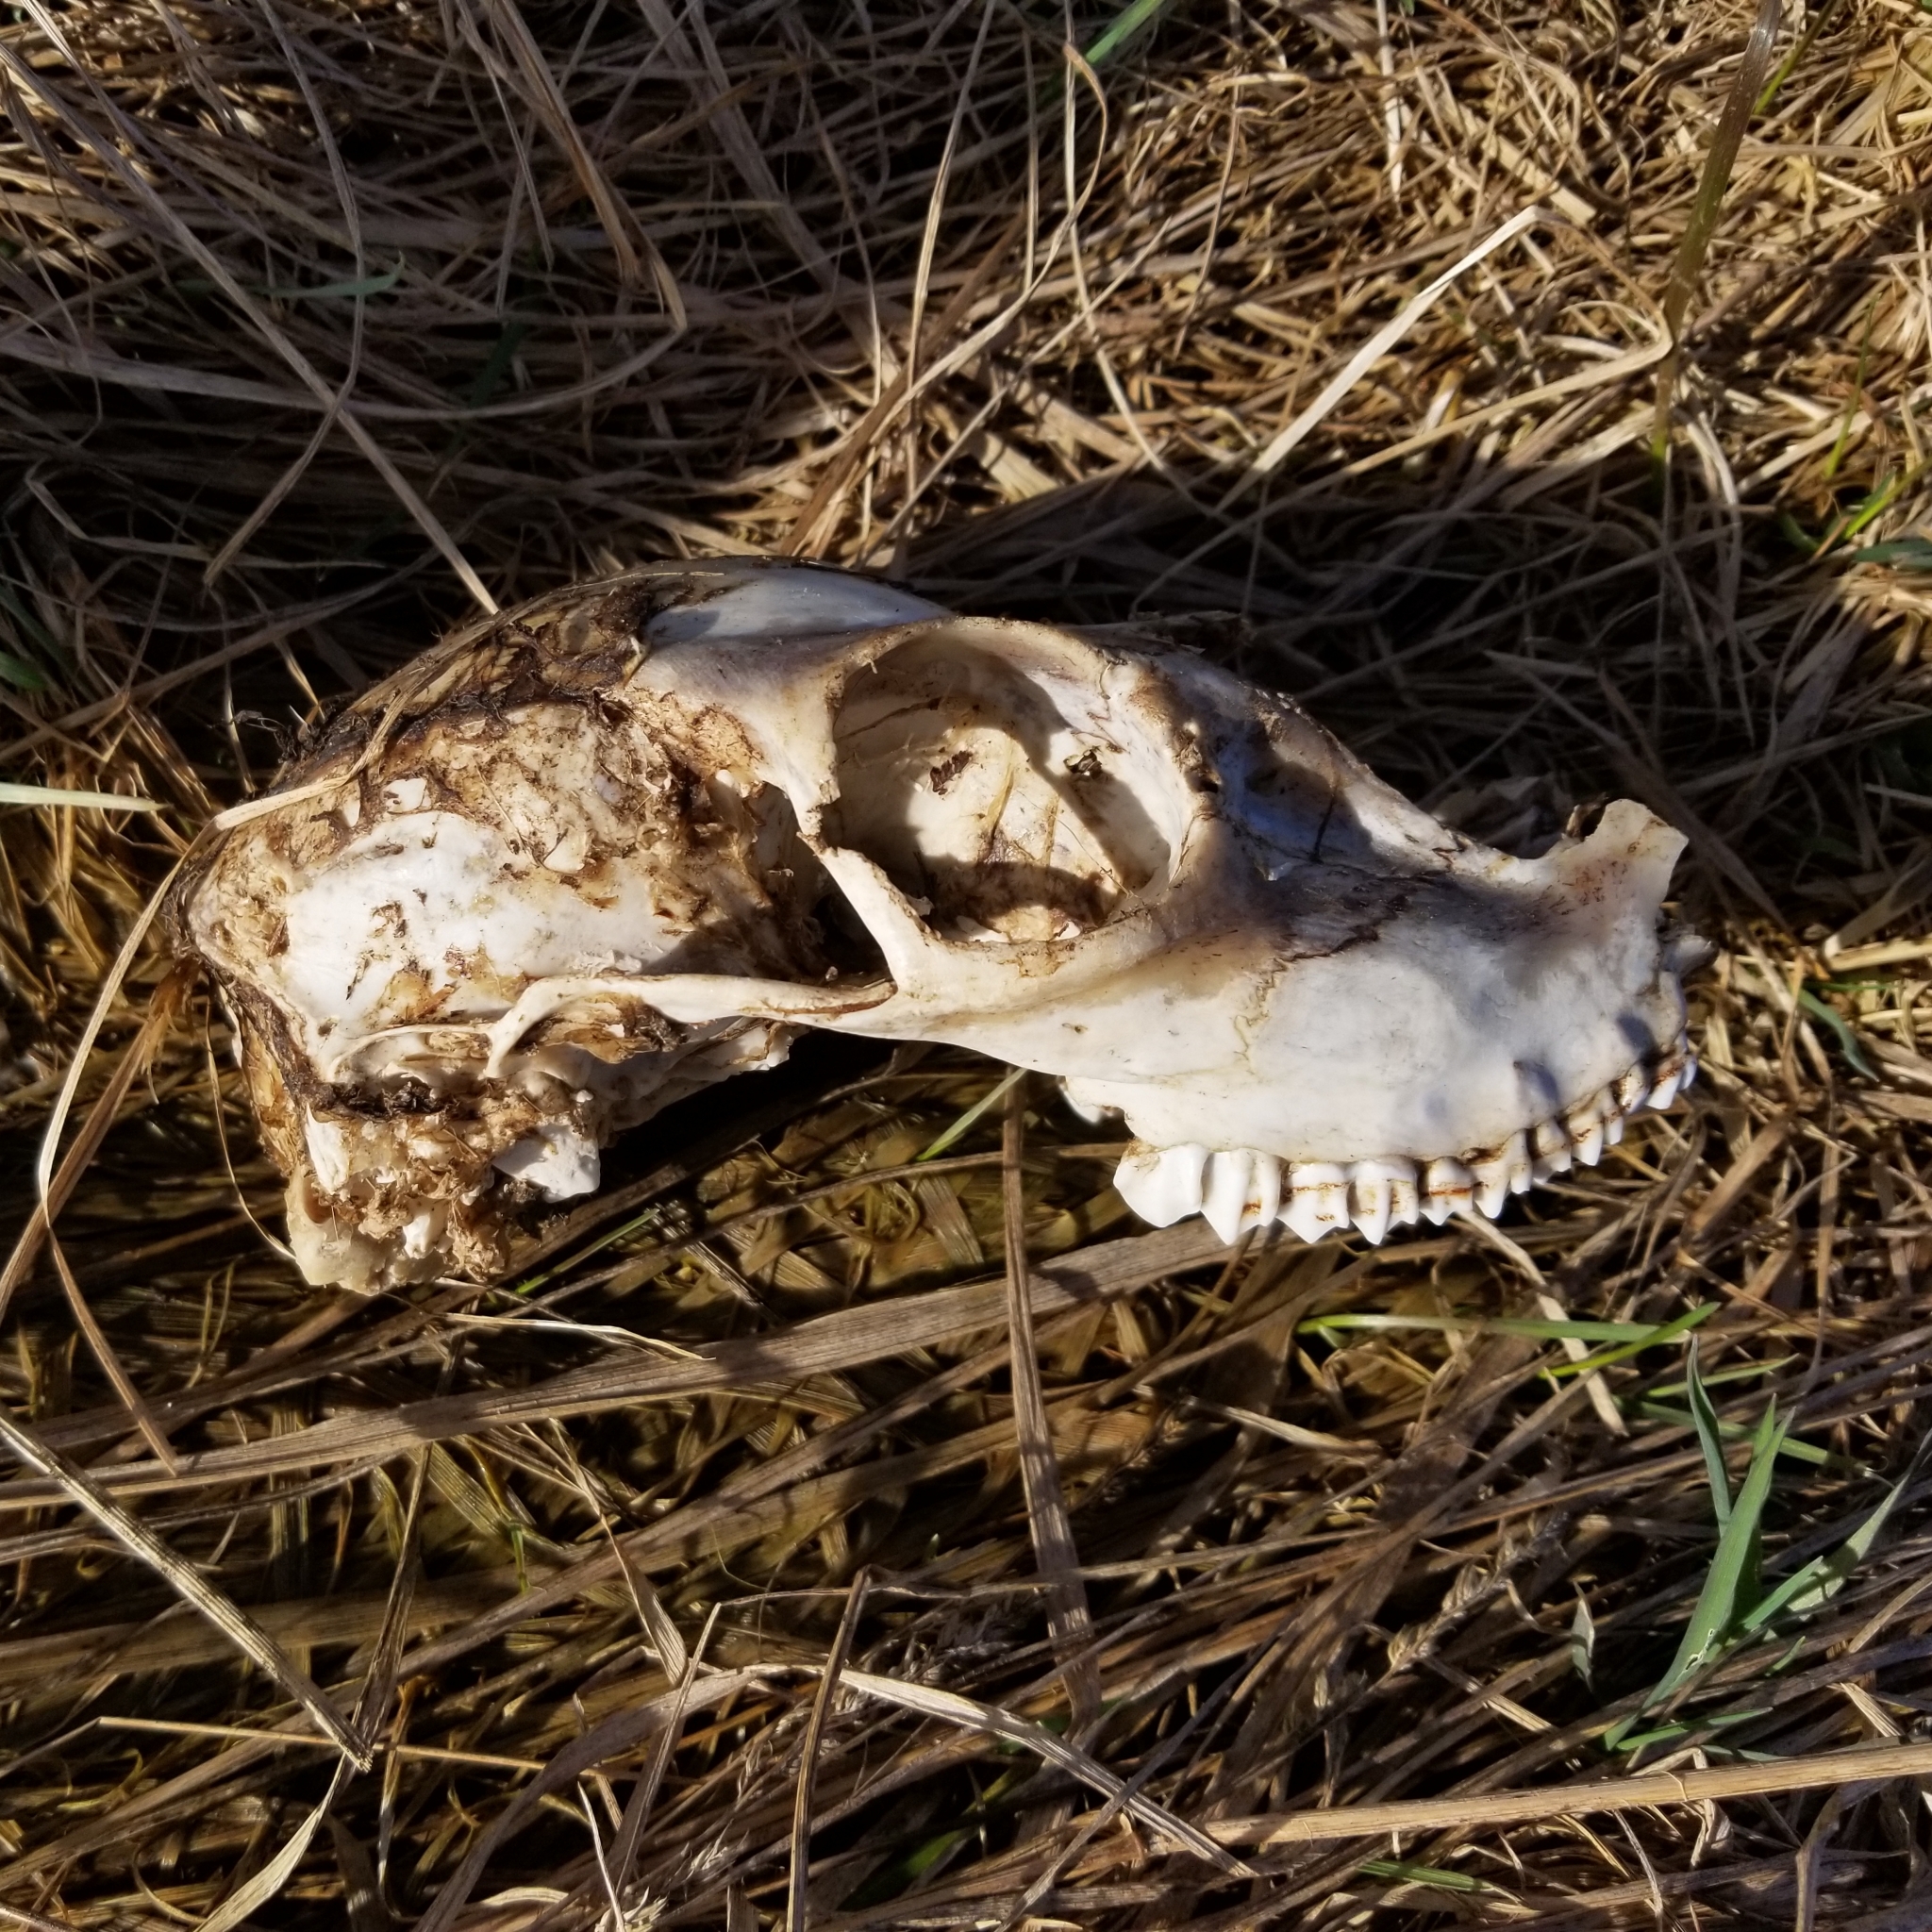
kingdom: Animalia
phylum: Chordata
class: Mammalia
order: Artiodactyla
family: Cervidae
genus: Odocoileus
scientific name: Odocoileus virginianus
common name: White-tailed deer
